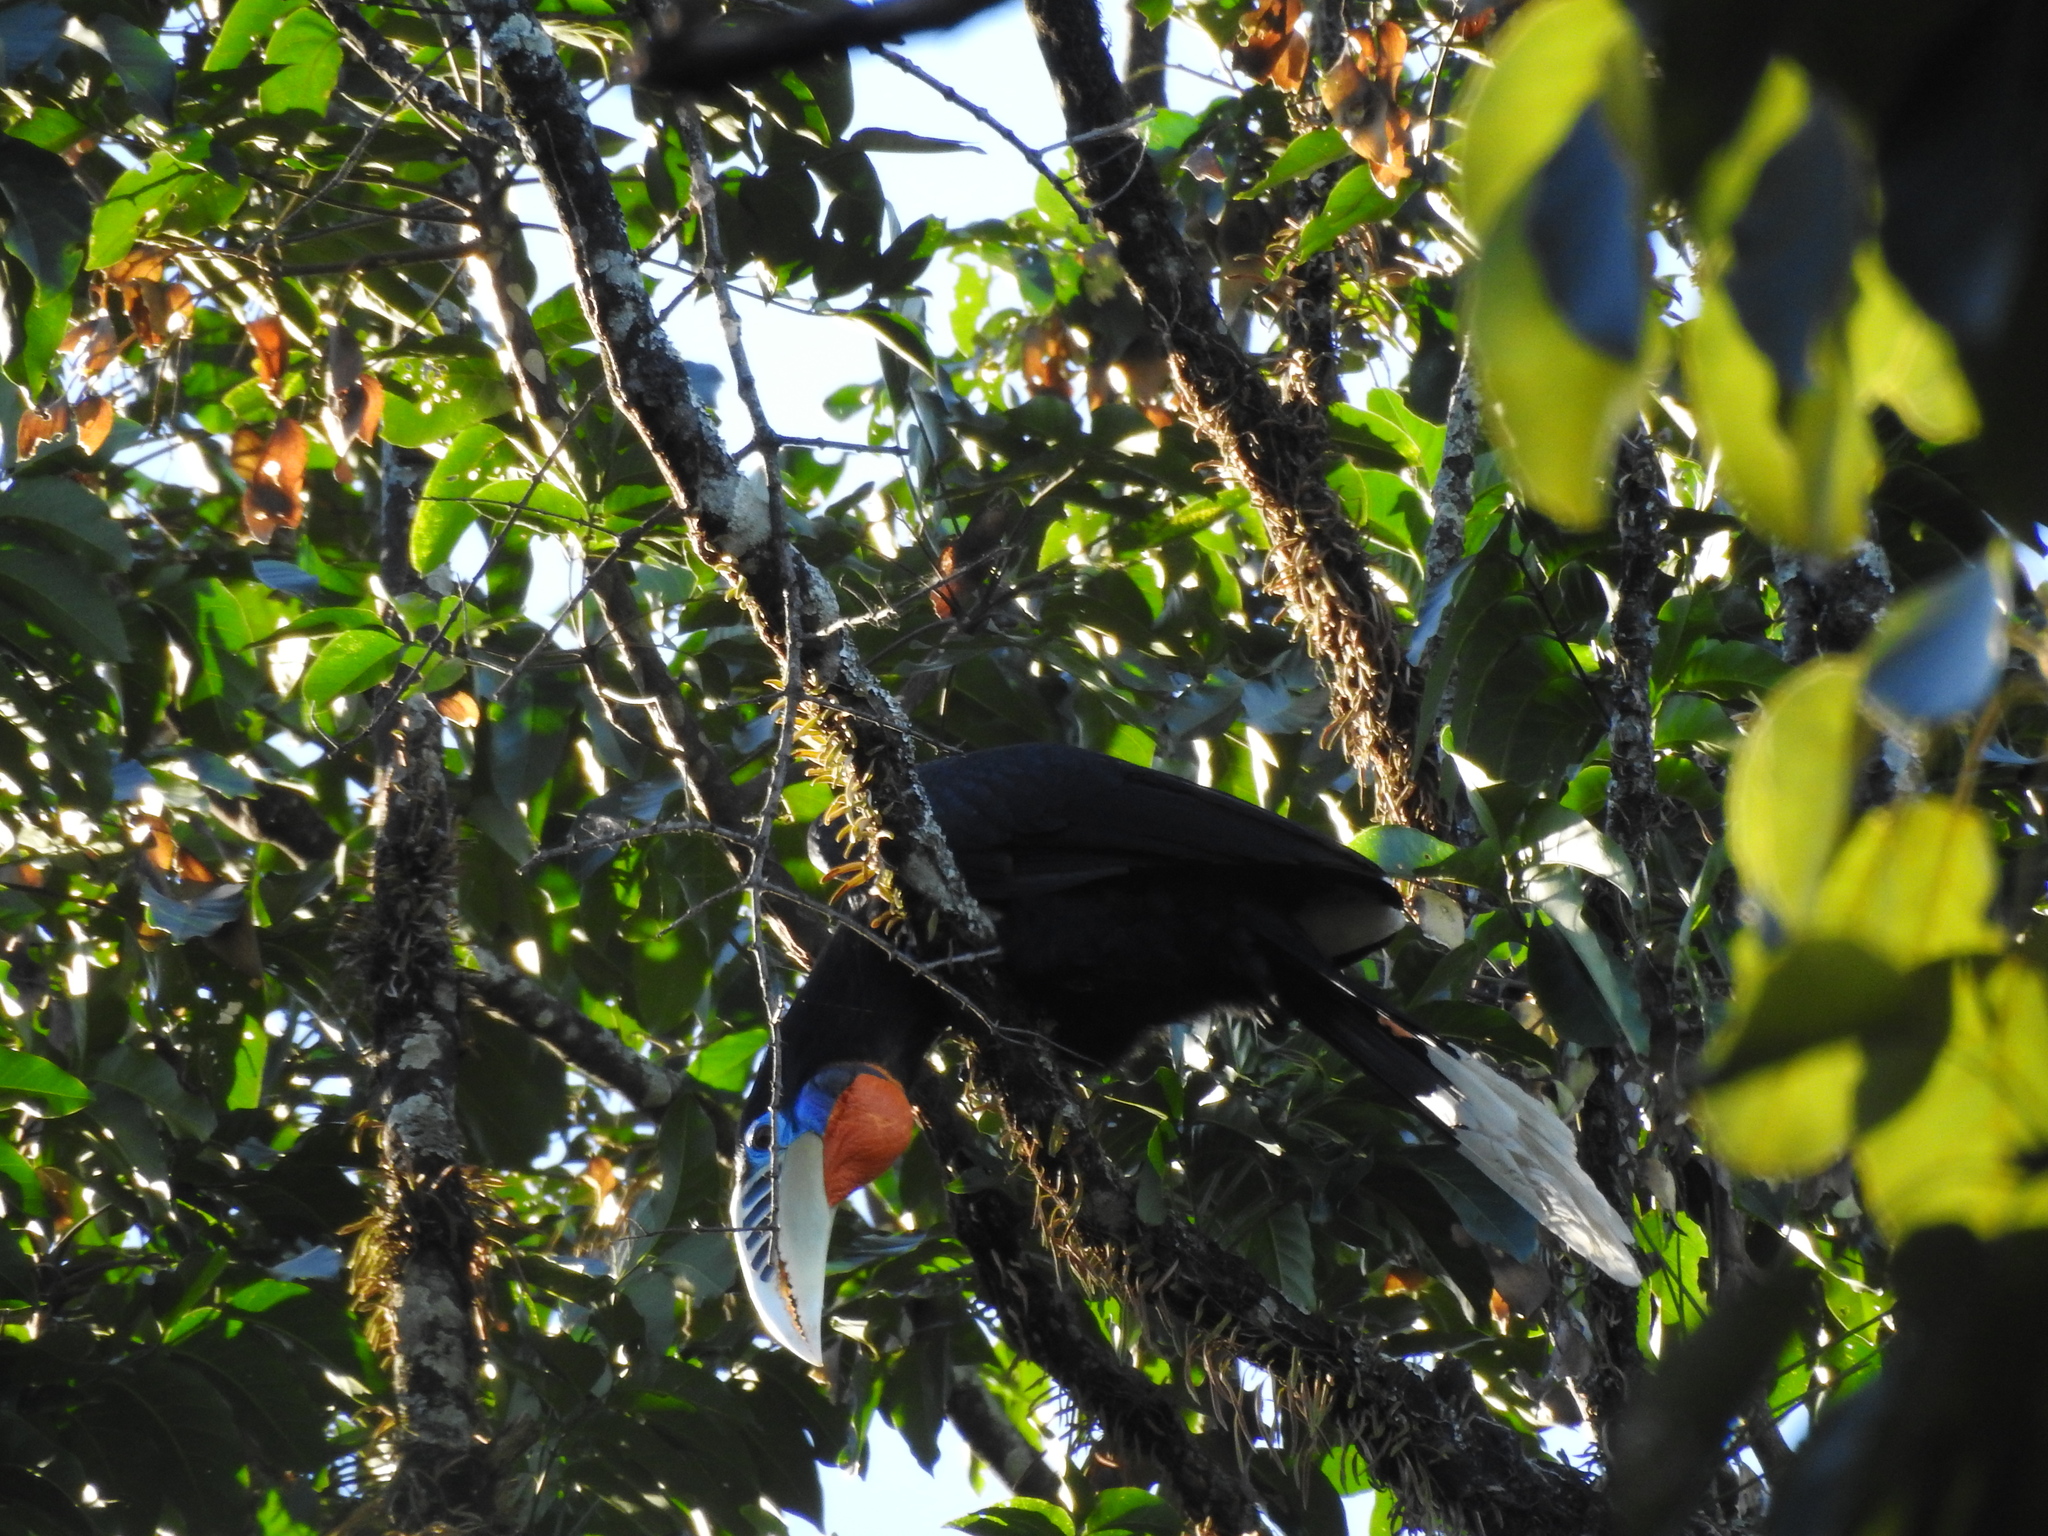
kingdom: Animalia
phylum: Chordata
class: Aves
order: Bucerotiformes
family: Bucerotidae
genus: Aceros
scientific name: Aceros nipalensis
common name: Rufous-necked hornbill
